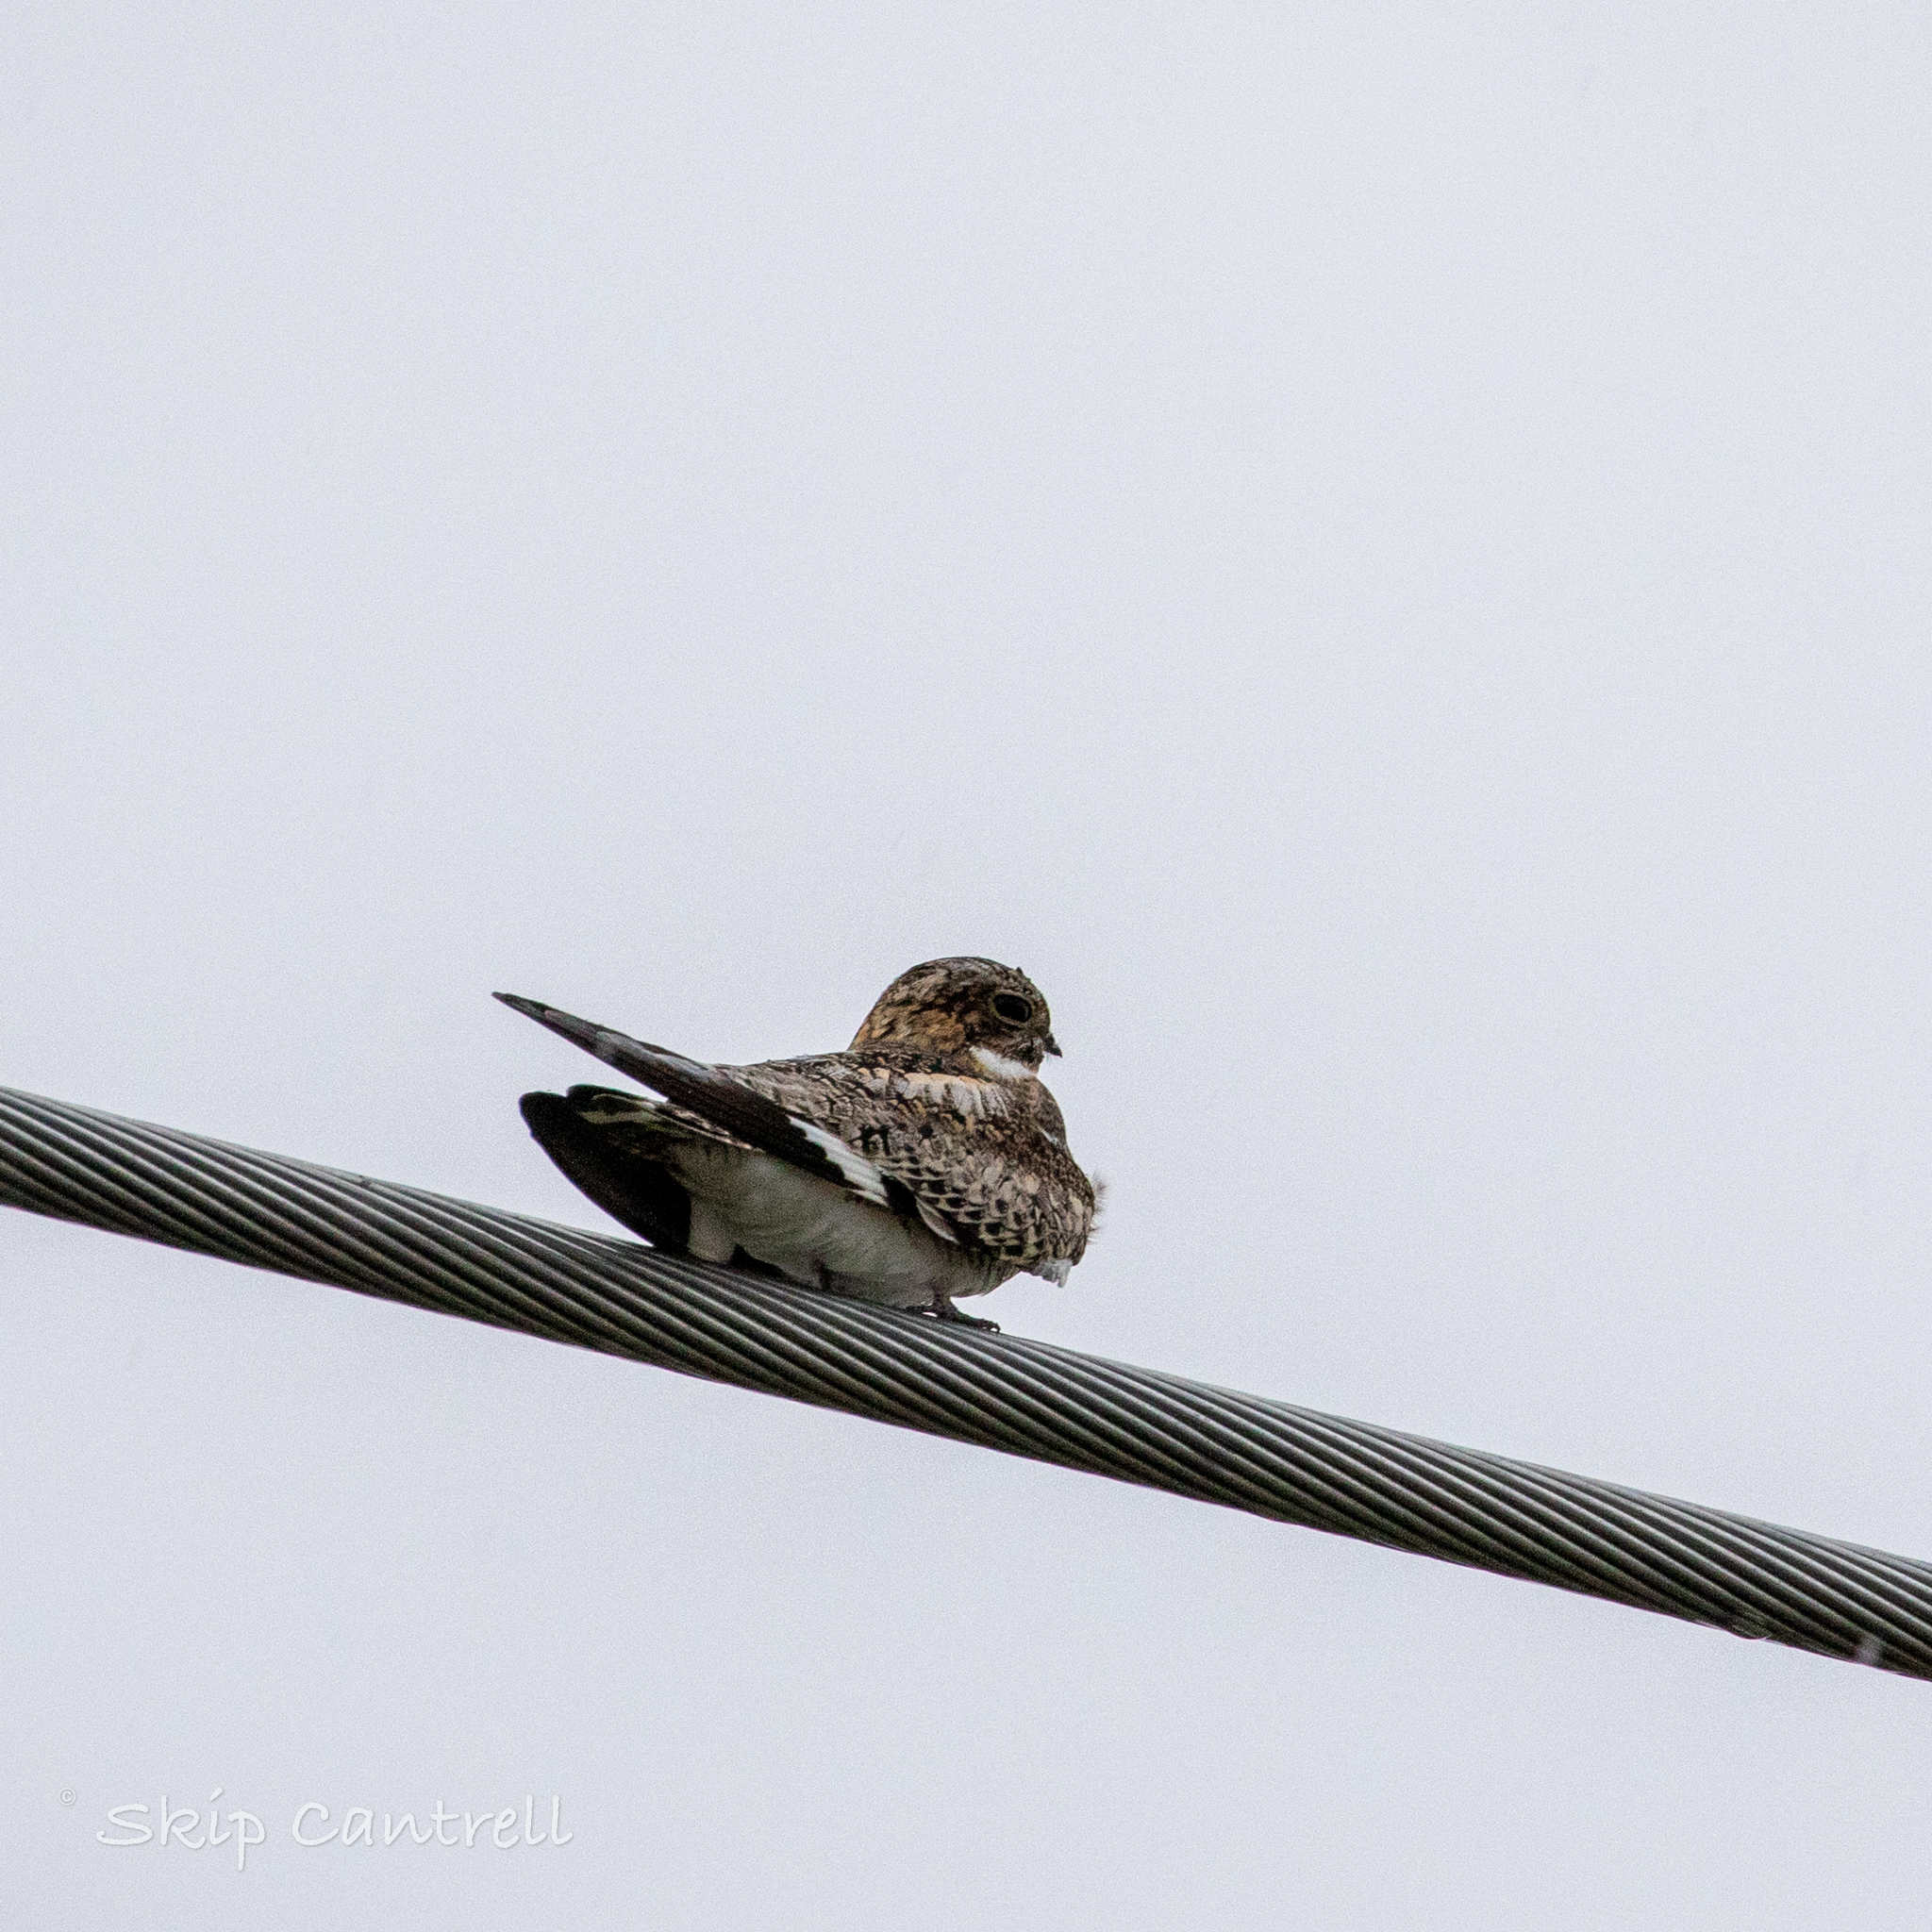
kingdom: Animalia
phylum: Chordata
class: Aves
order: Caprimulgiformes
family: Caprimulgidae
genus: Chordeiles
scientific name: Chordeiles minor
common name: Common nighthawk
